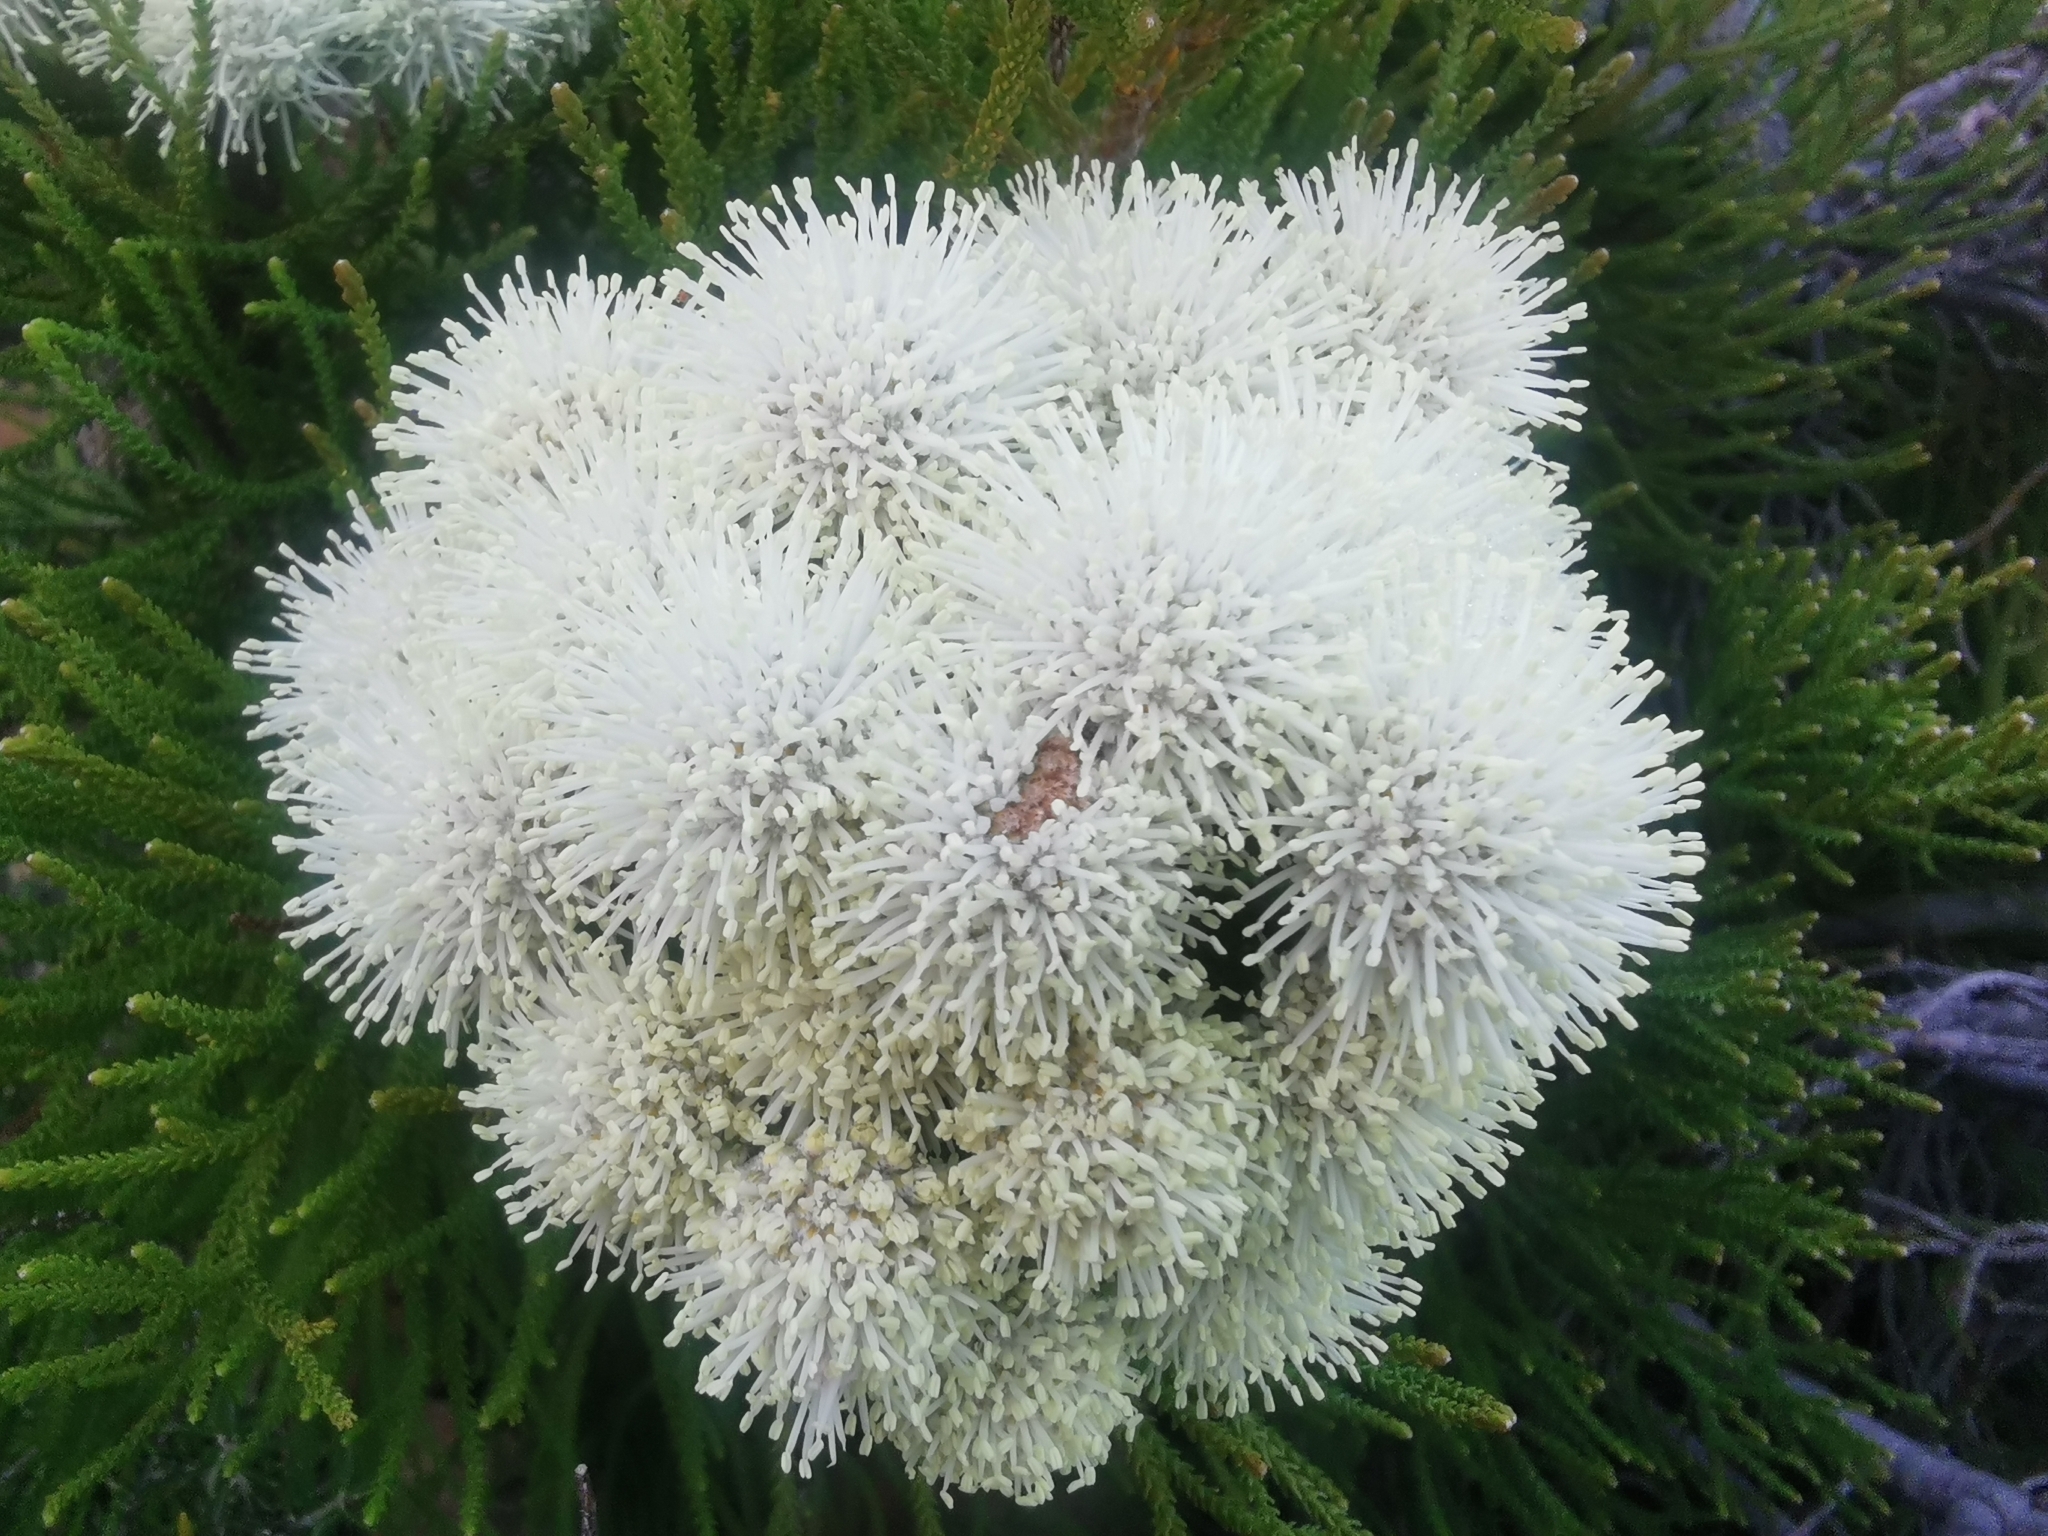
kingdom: Plantae
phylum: Tracheophyta
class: Magnoliopsida
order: Bruniales
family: Bruniaceae
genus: Brunia
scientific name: Brunia noduliflora
